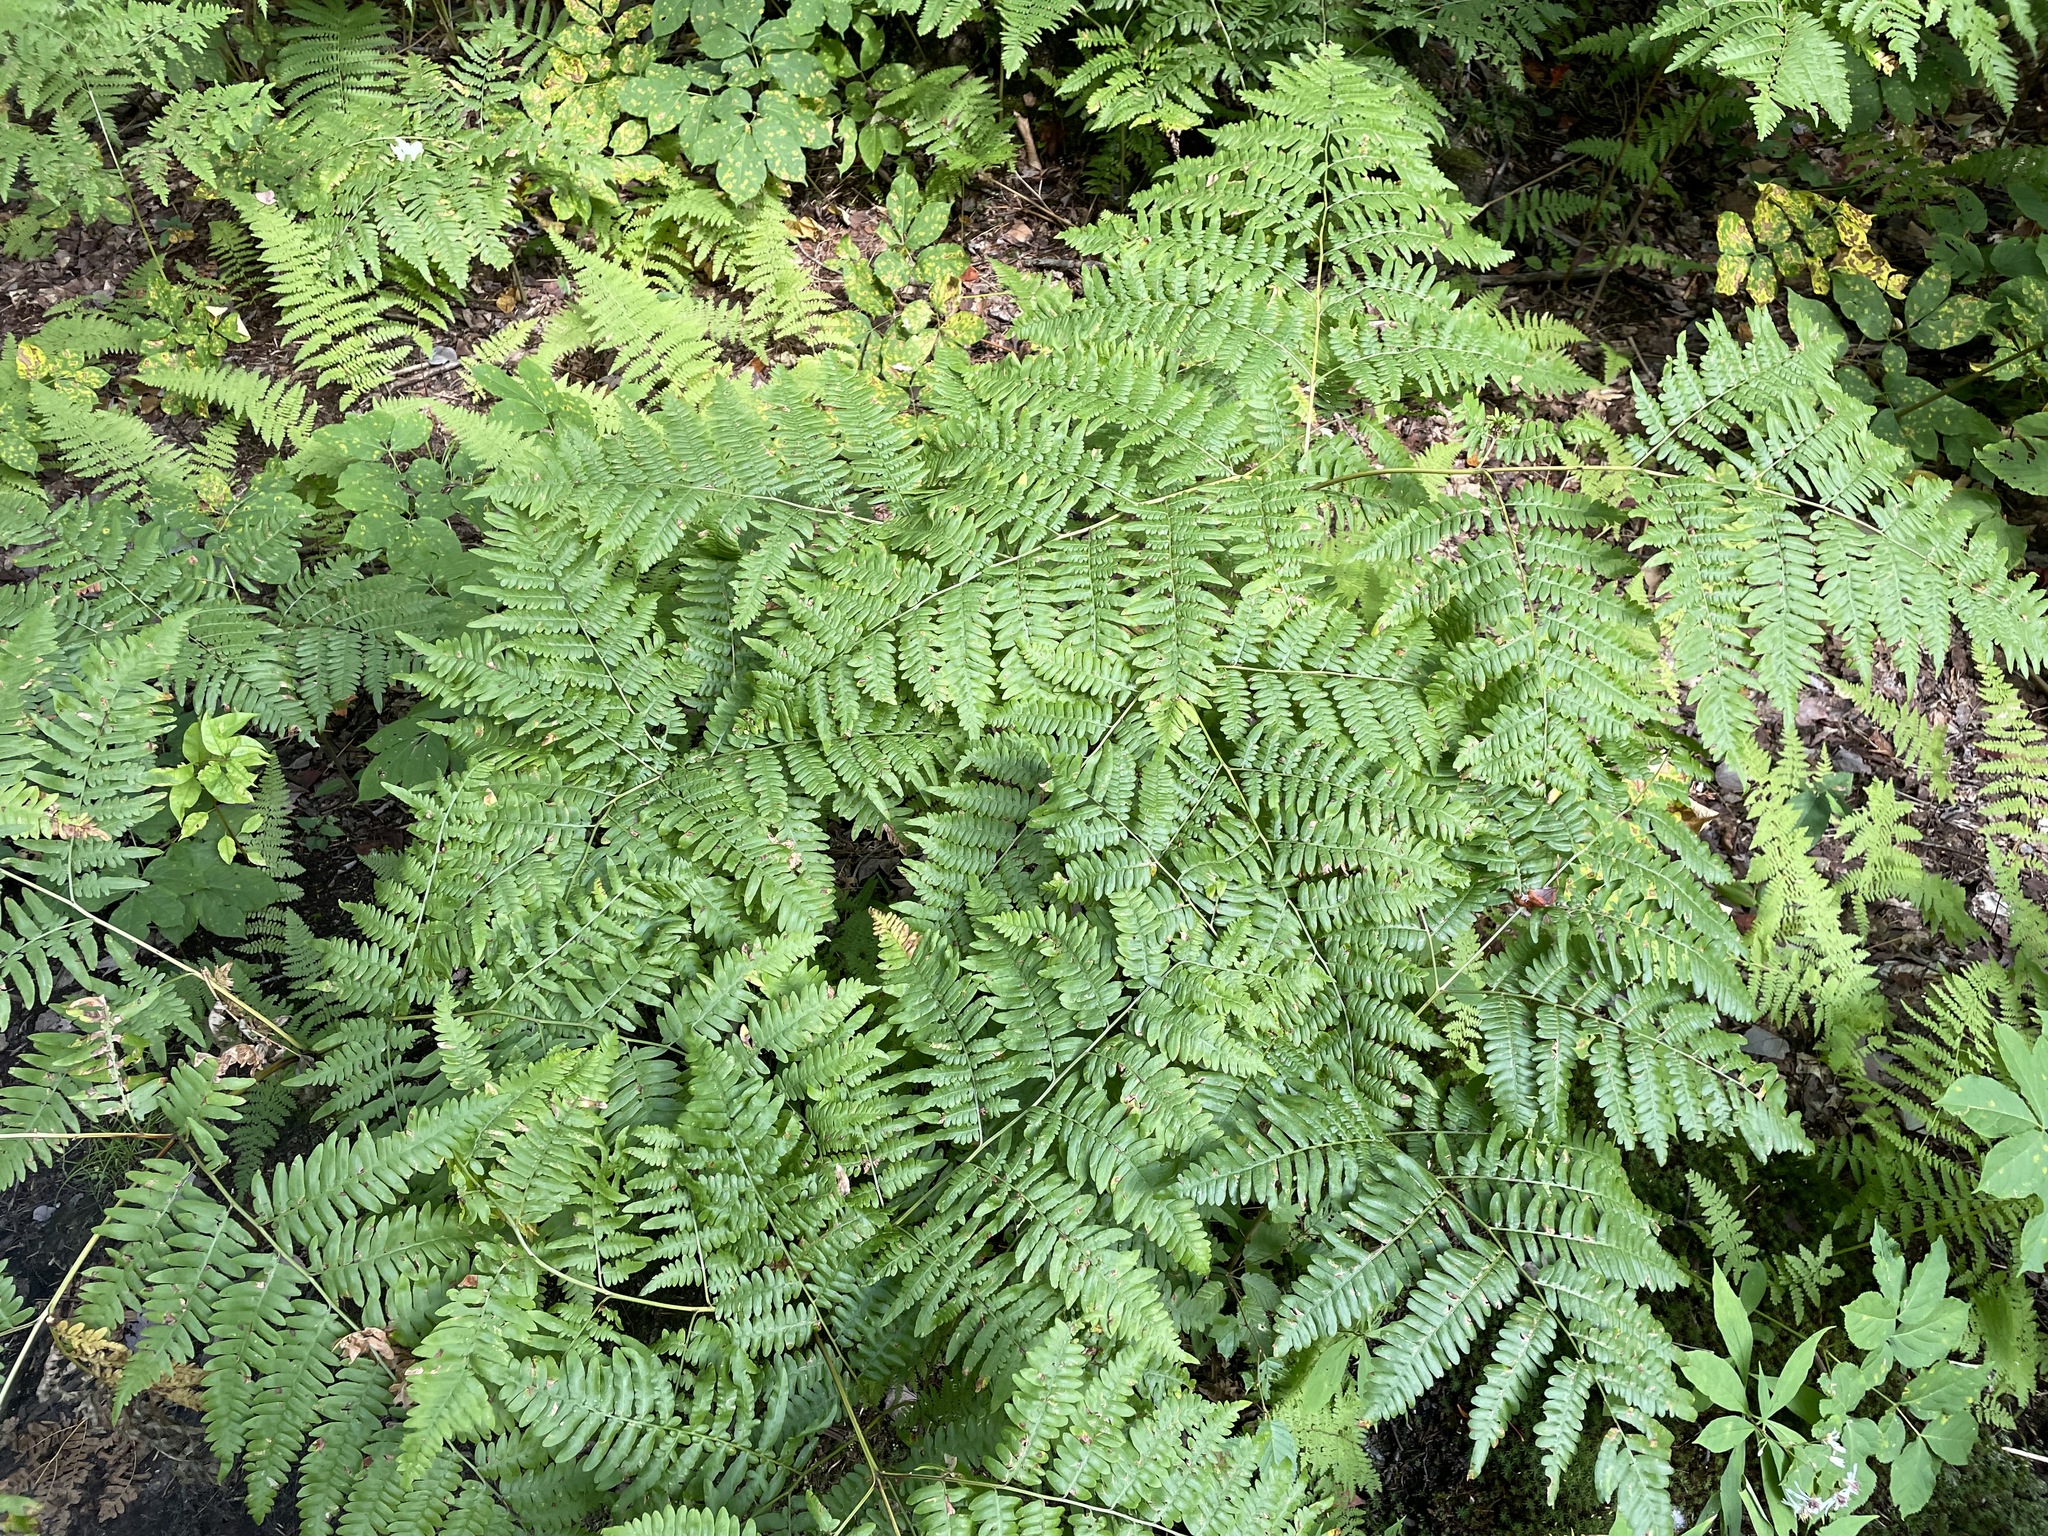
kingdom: Plantae
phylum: Tracheophyta
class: Polypodiopsida
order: Polypodiales
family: Dennstaedtiaceae
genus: Pteridium
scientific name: Pteridium aquilinum
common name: Bracken
